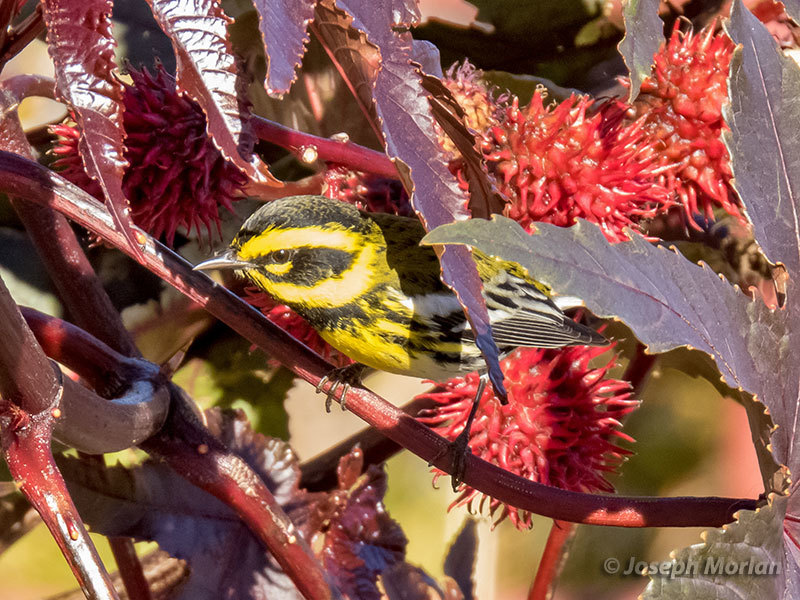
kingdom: Animalia
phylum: Chordata
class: Aves
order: Passeriformes
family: Parulidae
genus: Setophaga
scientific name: Setophaga townsendi
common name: Townsend's warbler
